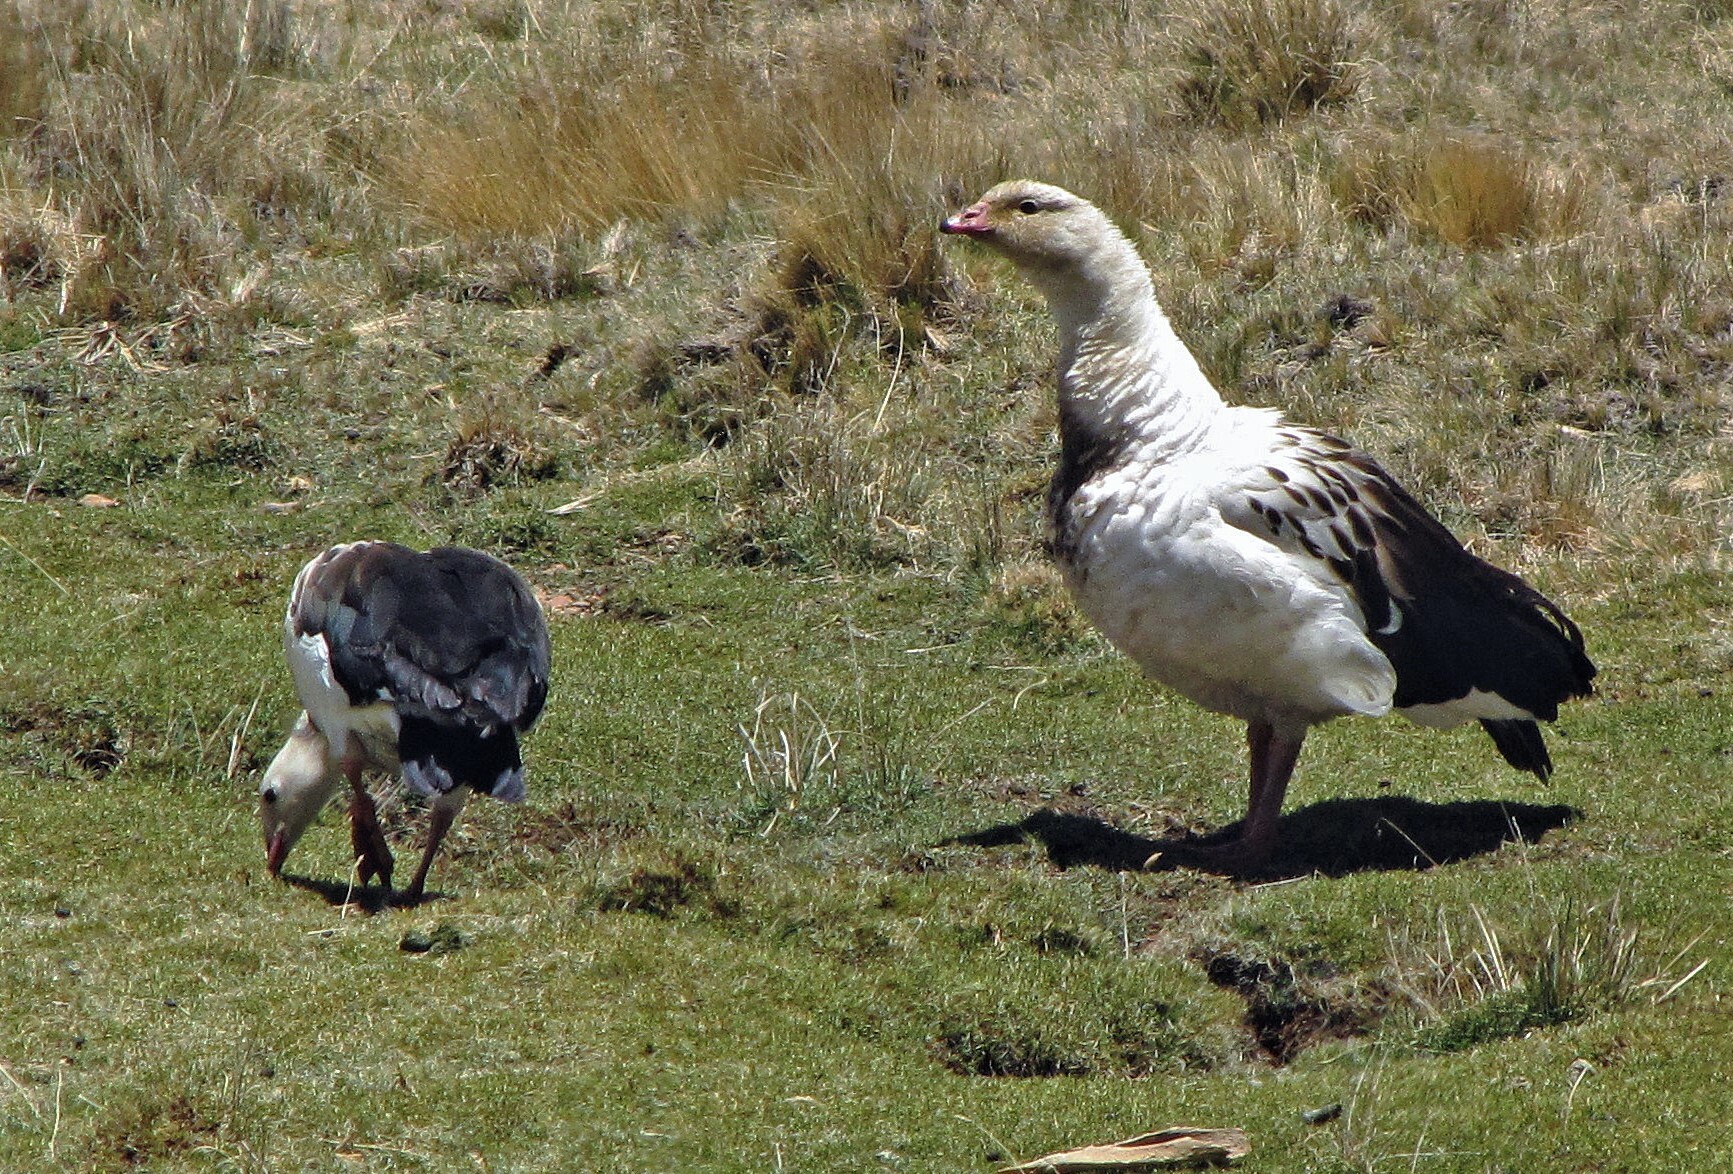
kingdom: Animalia
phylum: Chordata
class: Aves
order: Anseriformes
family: Anatidae
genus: Chloephaga
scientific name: Chloephaga melanoptera
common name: Andean goose
